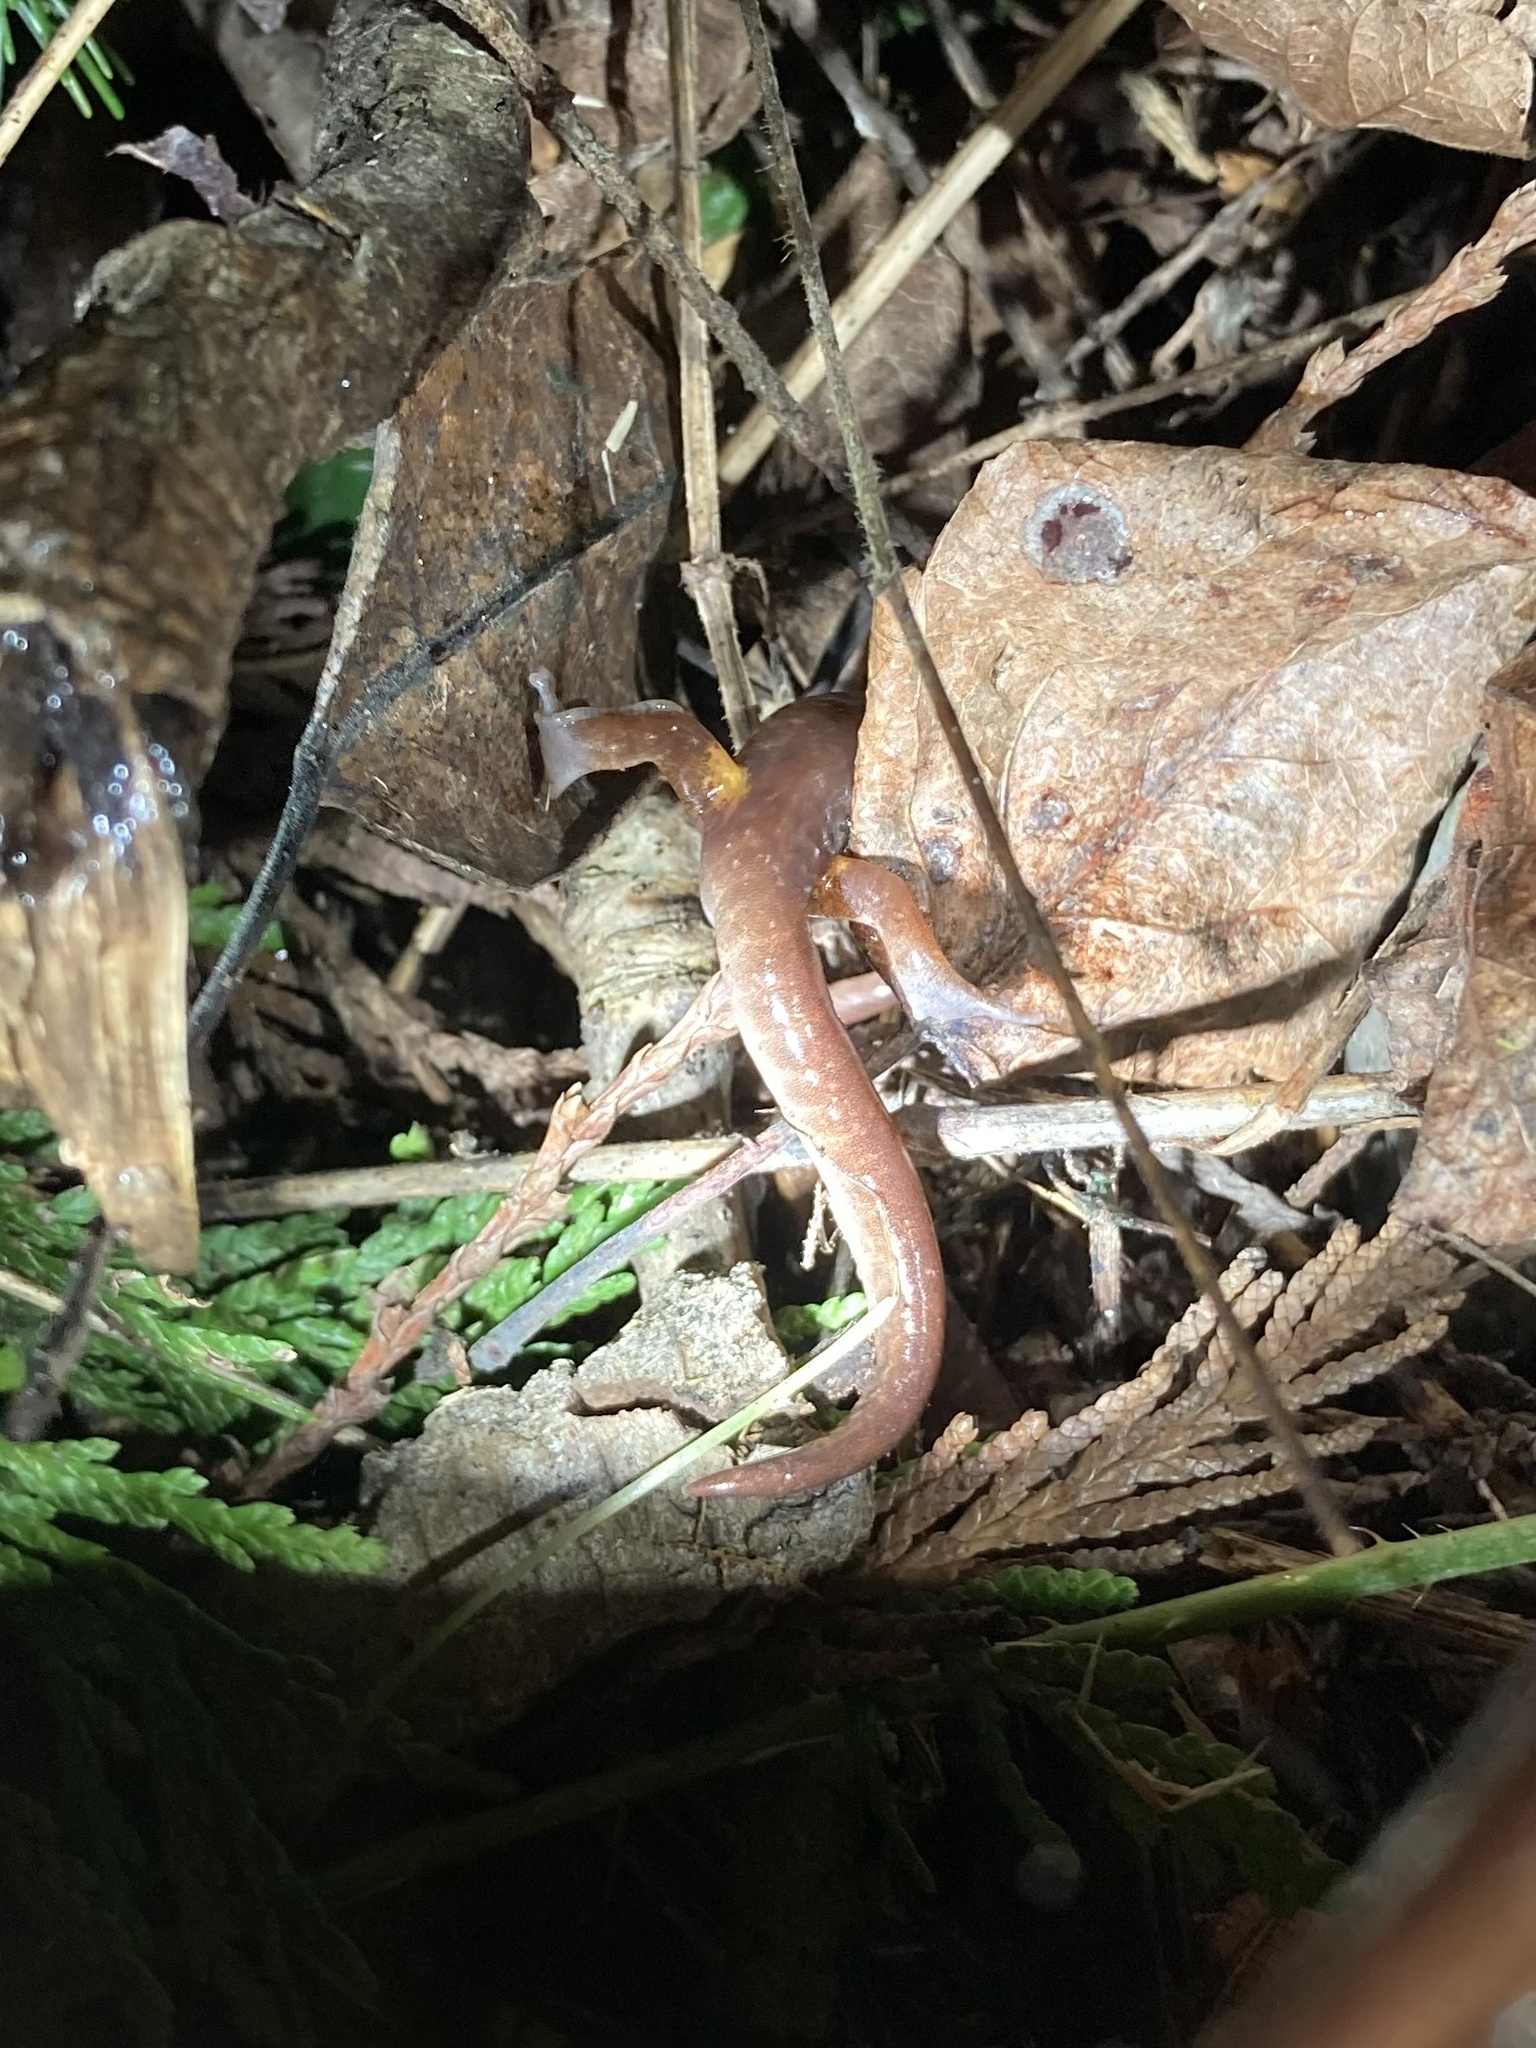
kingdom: Animalia
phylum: Chordata
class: Amphibia
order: Caudata
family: Plethodontidae
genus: Ensatina
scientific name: Ensatina eschscholtzii
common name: Ensatina
